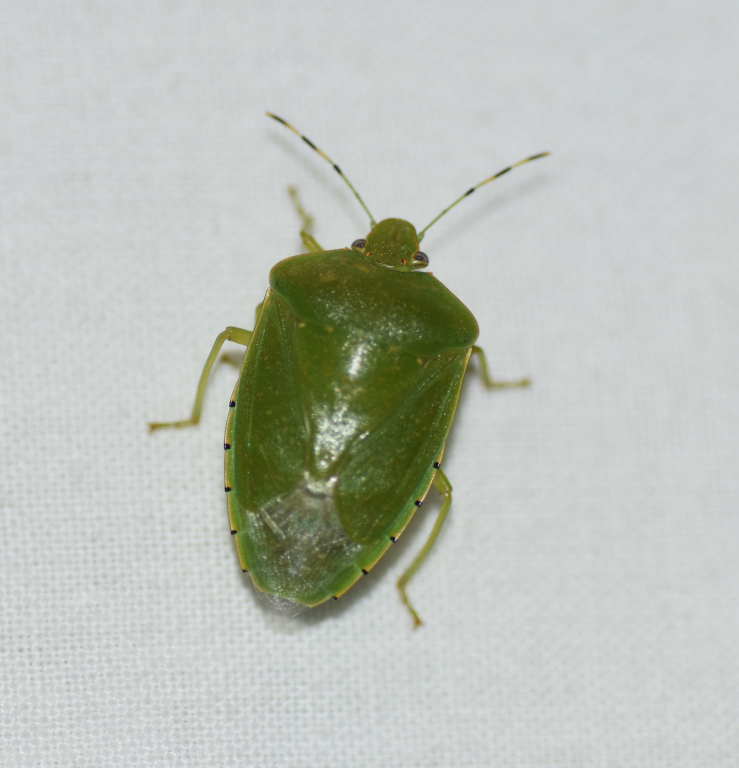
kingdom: Animalia
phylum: Arthropoda
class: Insecta
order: Hemiptera
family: Pentatomidae
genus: Chinavia
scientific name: Chinavia hilaris
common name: Green stink bug
